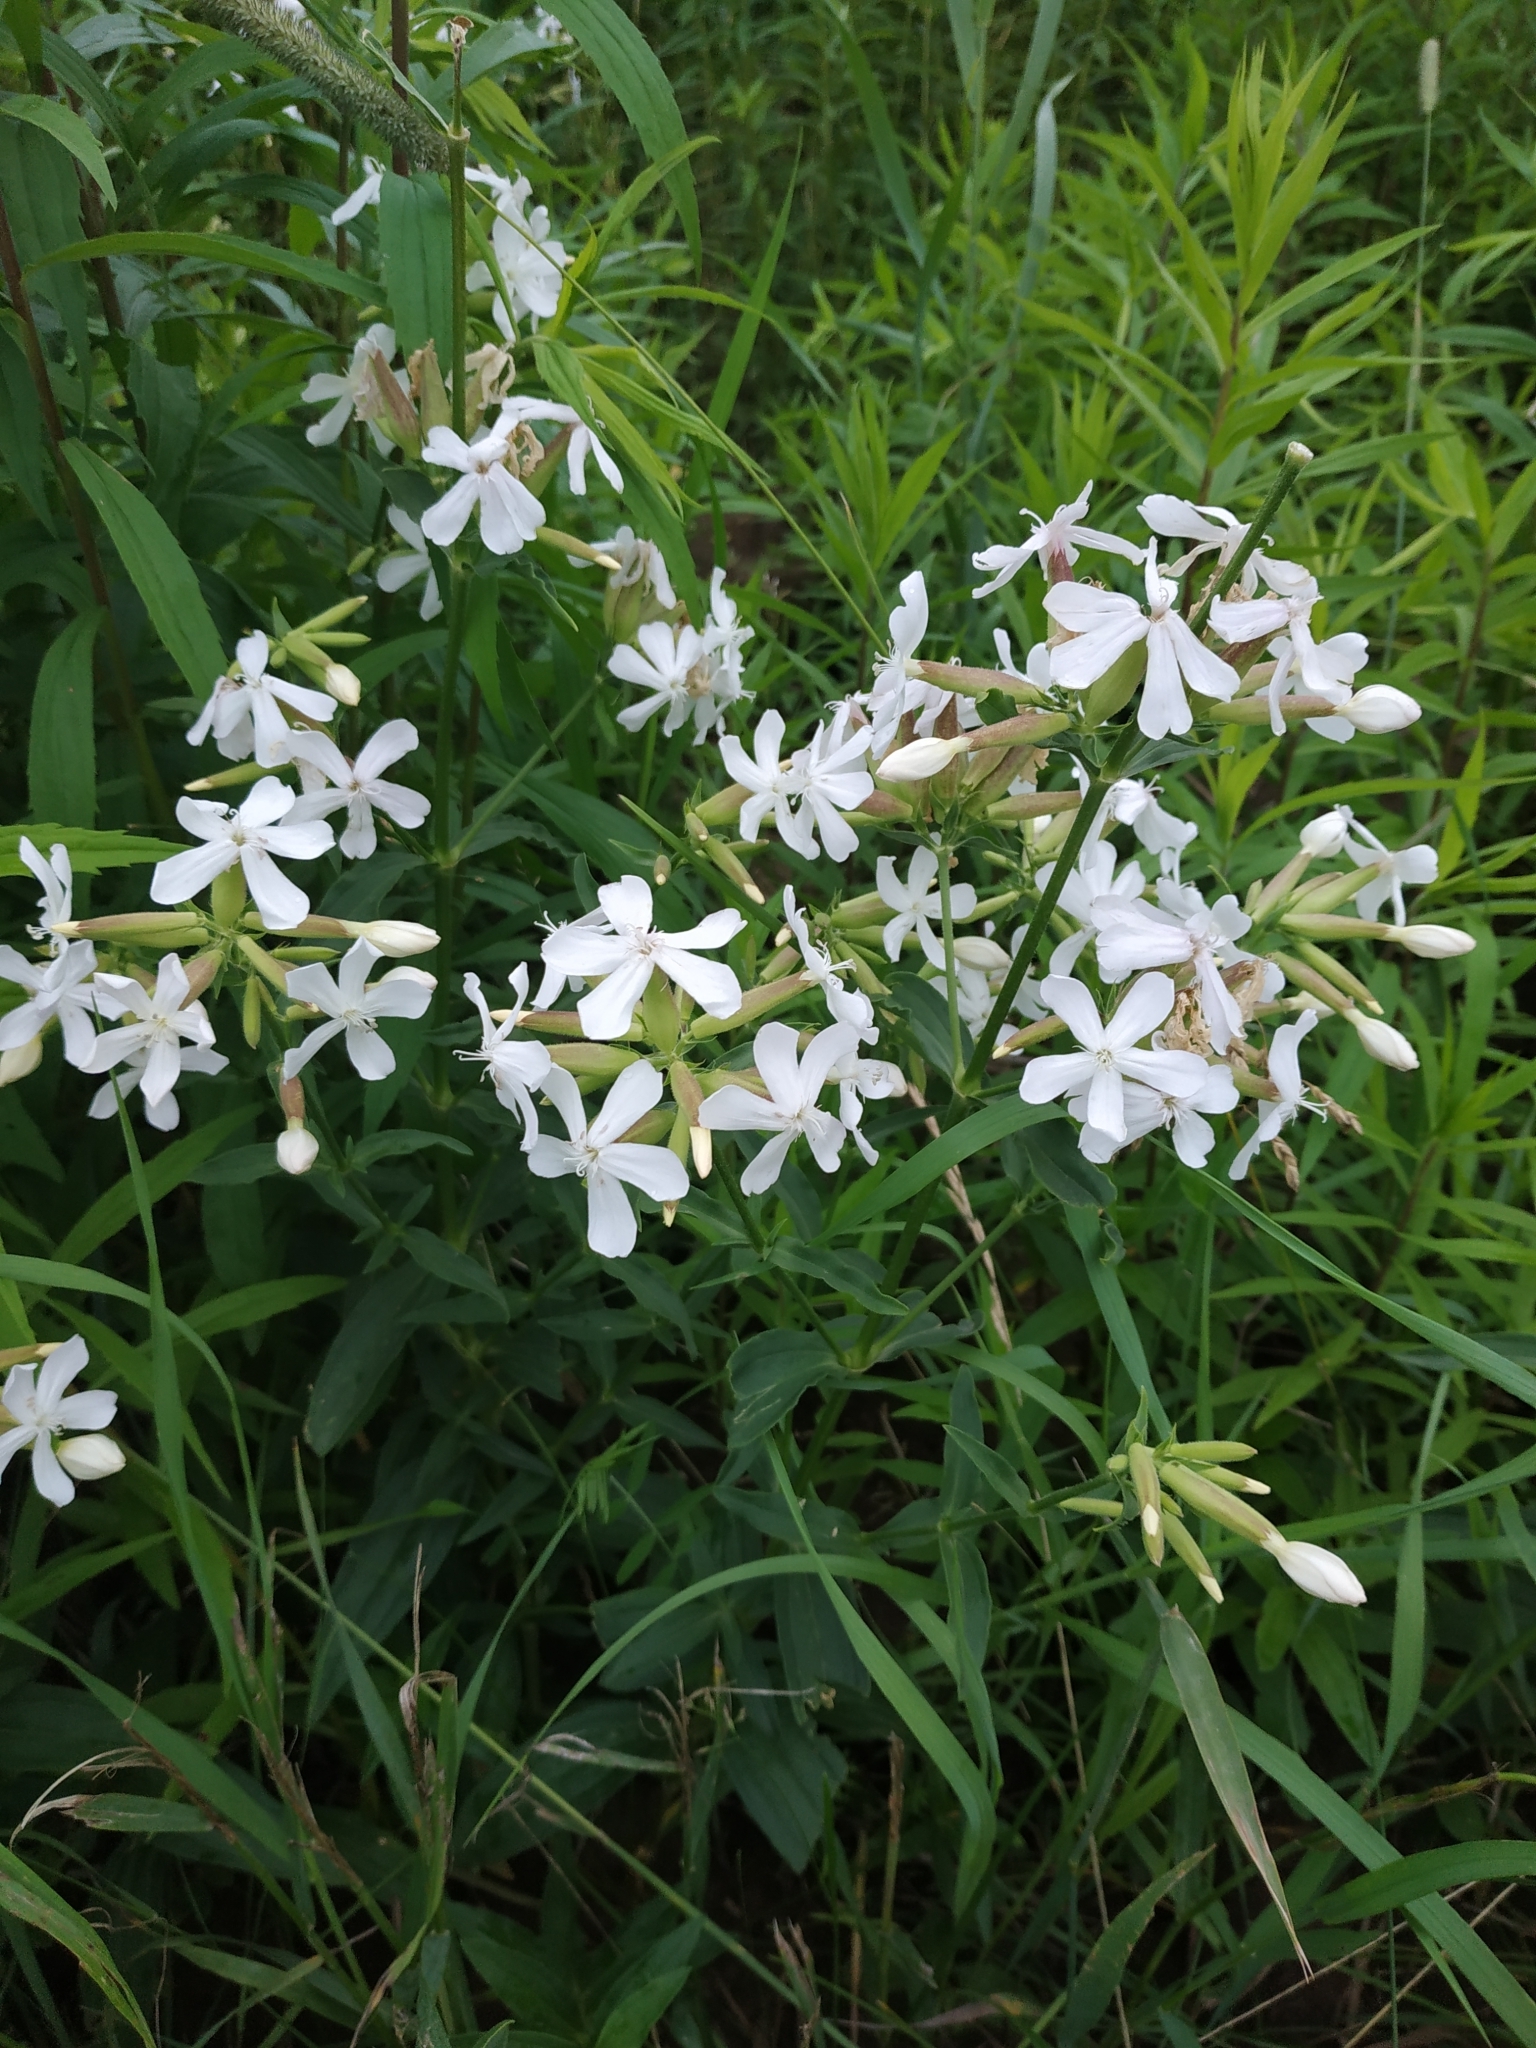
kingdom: Plantae
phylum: Tracheophyta
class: Magnoliopsida
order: Caryophyllales
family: Caryophyllaceae
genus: Saponaria
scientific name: Saponaria officinalis
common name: Soapwort
